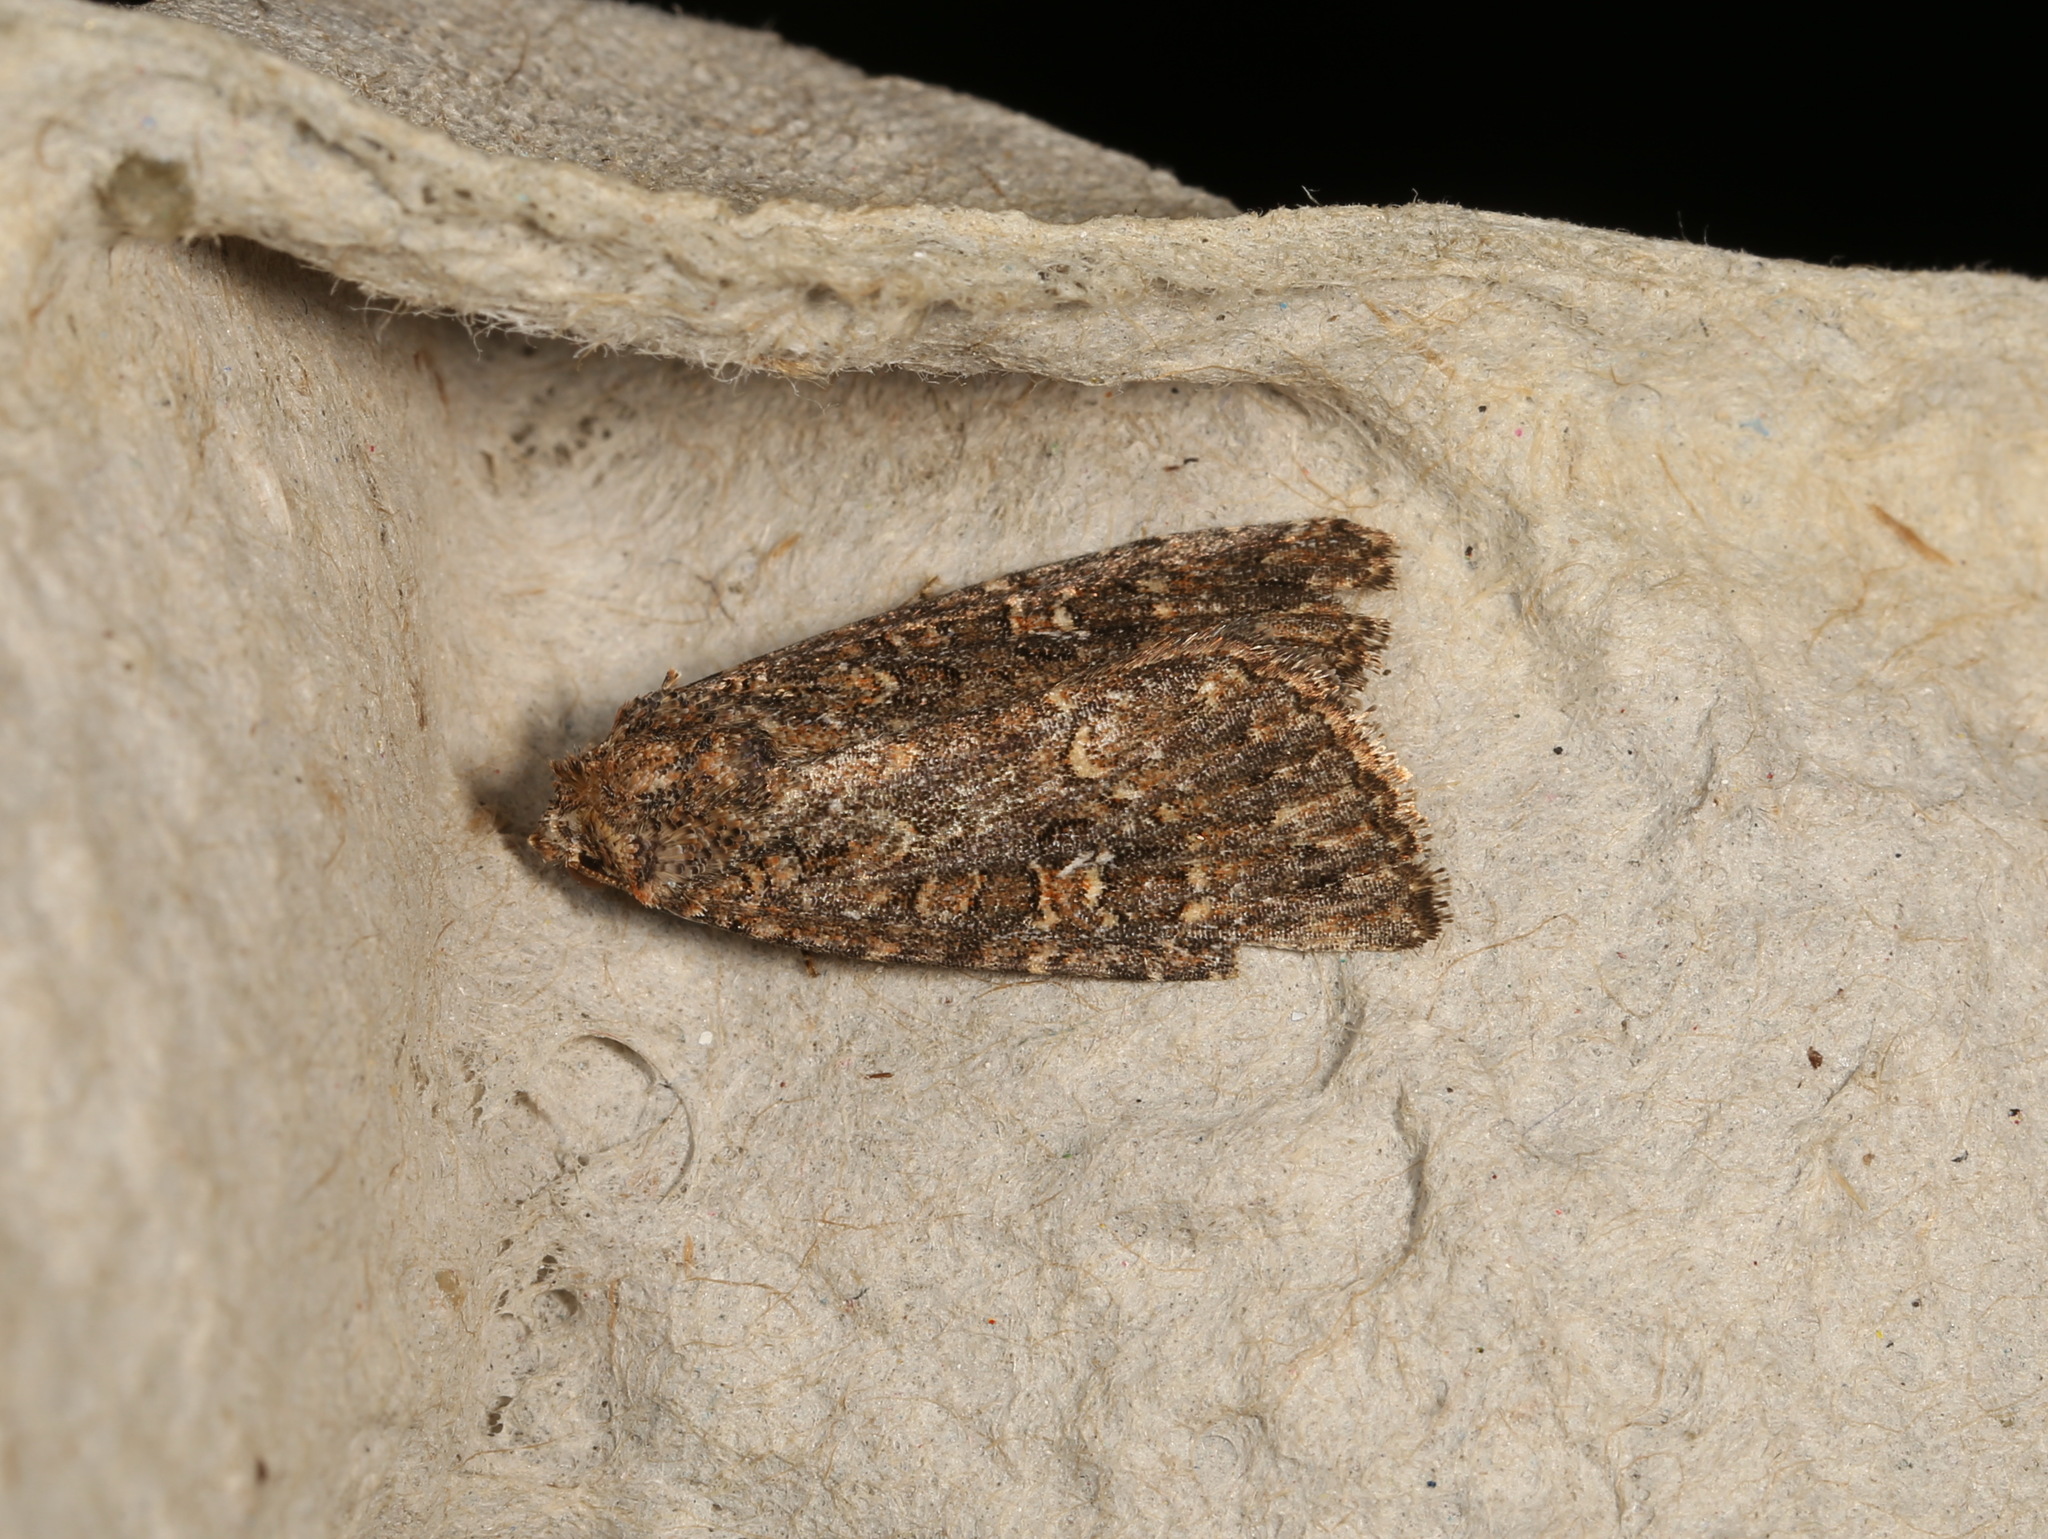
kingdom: Animalia
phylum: Arthropoda
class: Insecta
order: Lepidoptera
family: Noctuidae
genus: Hypoperigea
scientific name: Hypoperigea tonsa
